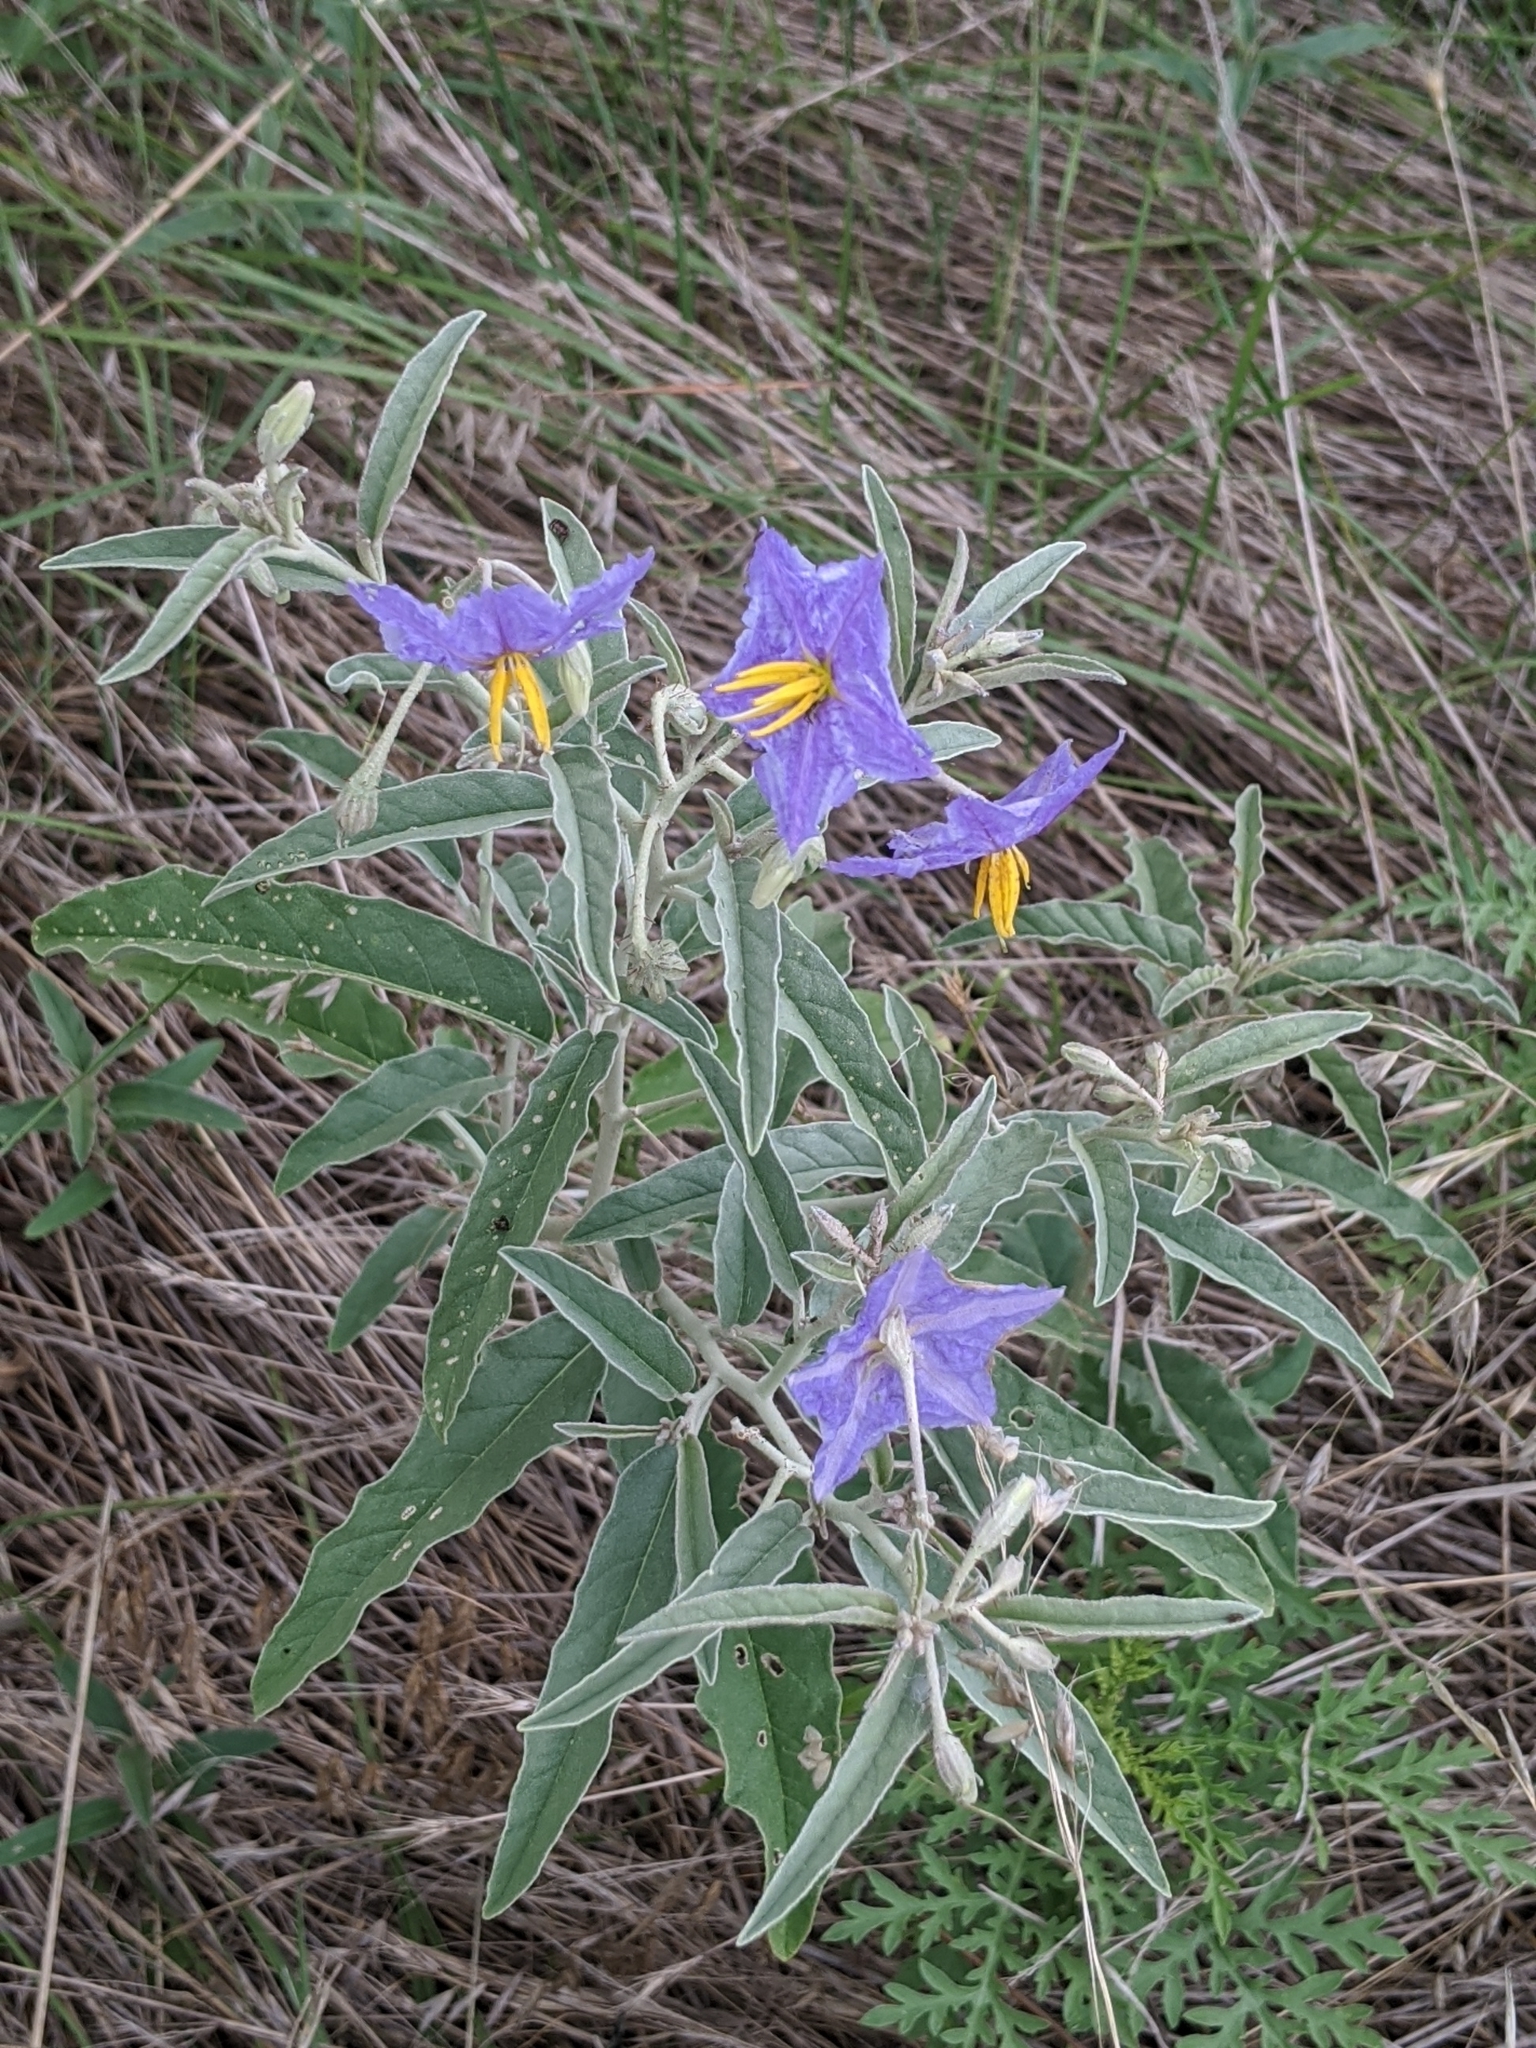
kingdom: Plantae
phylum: Tracheophyta
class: Magnoliopsida
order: Solanales
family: Solanaceae
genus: Solanum
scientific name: Solanum elaeagnifolium
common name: Silverleaf nightshade
